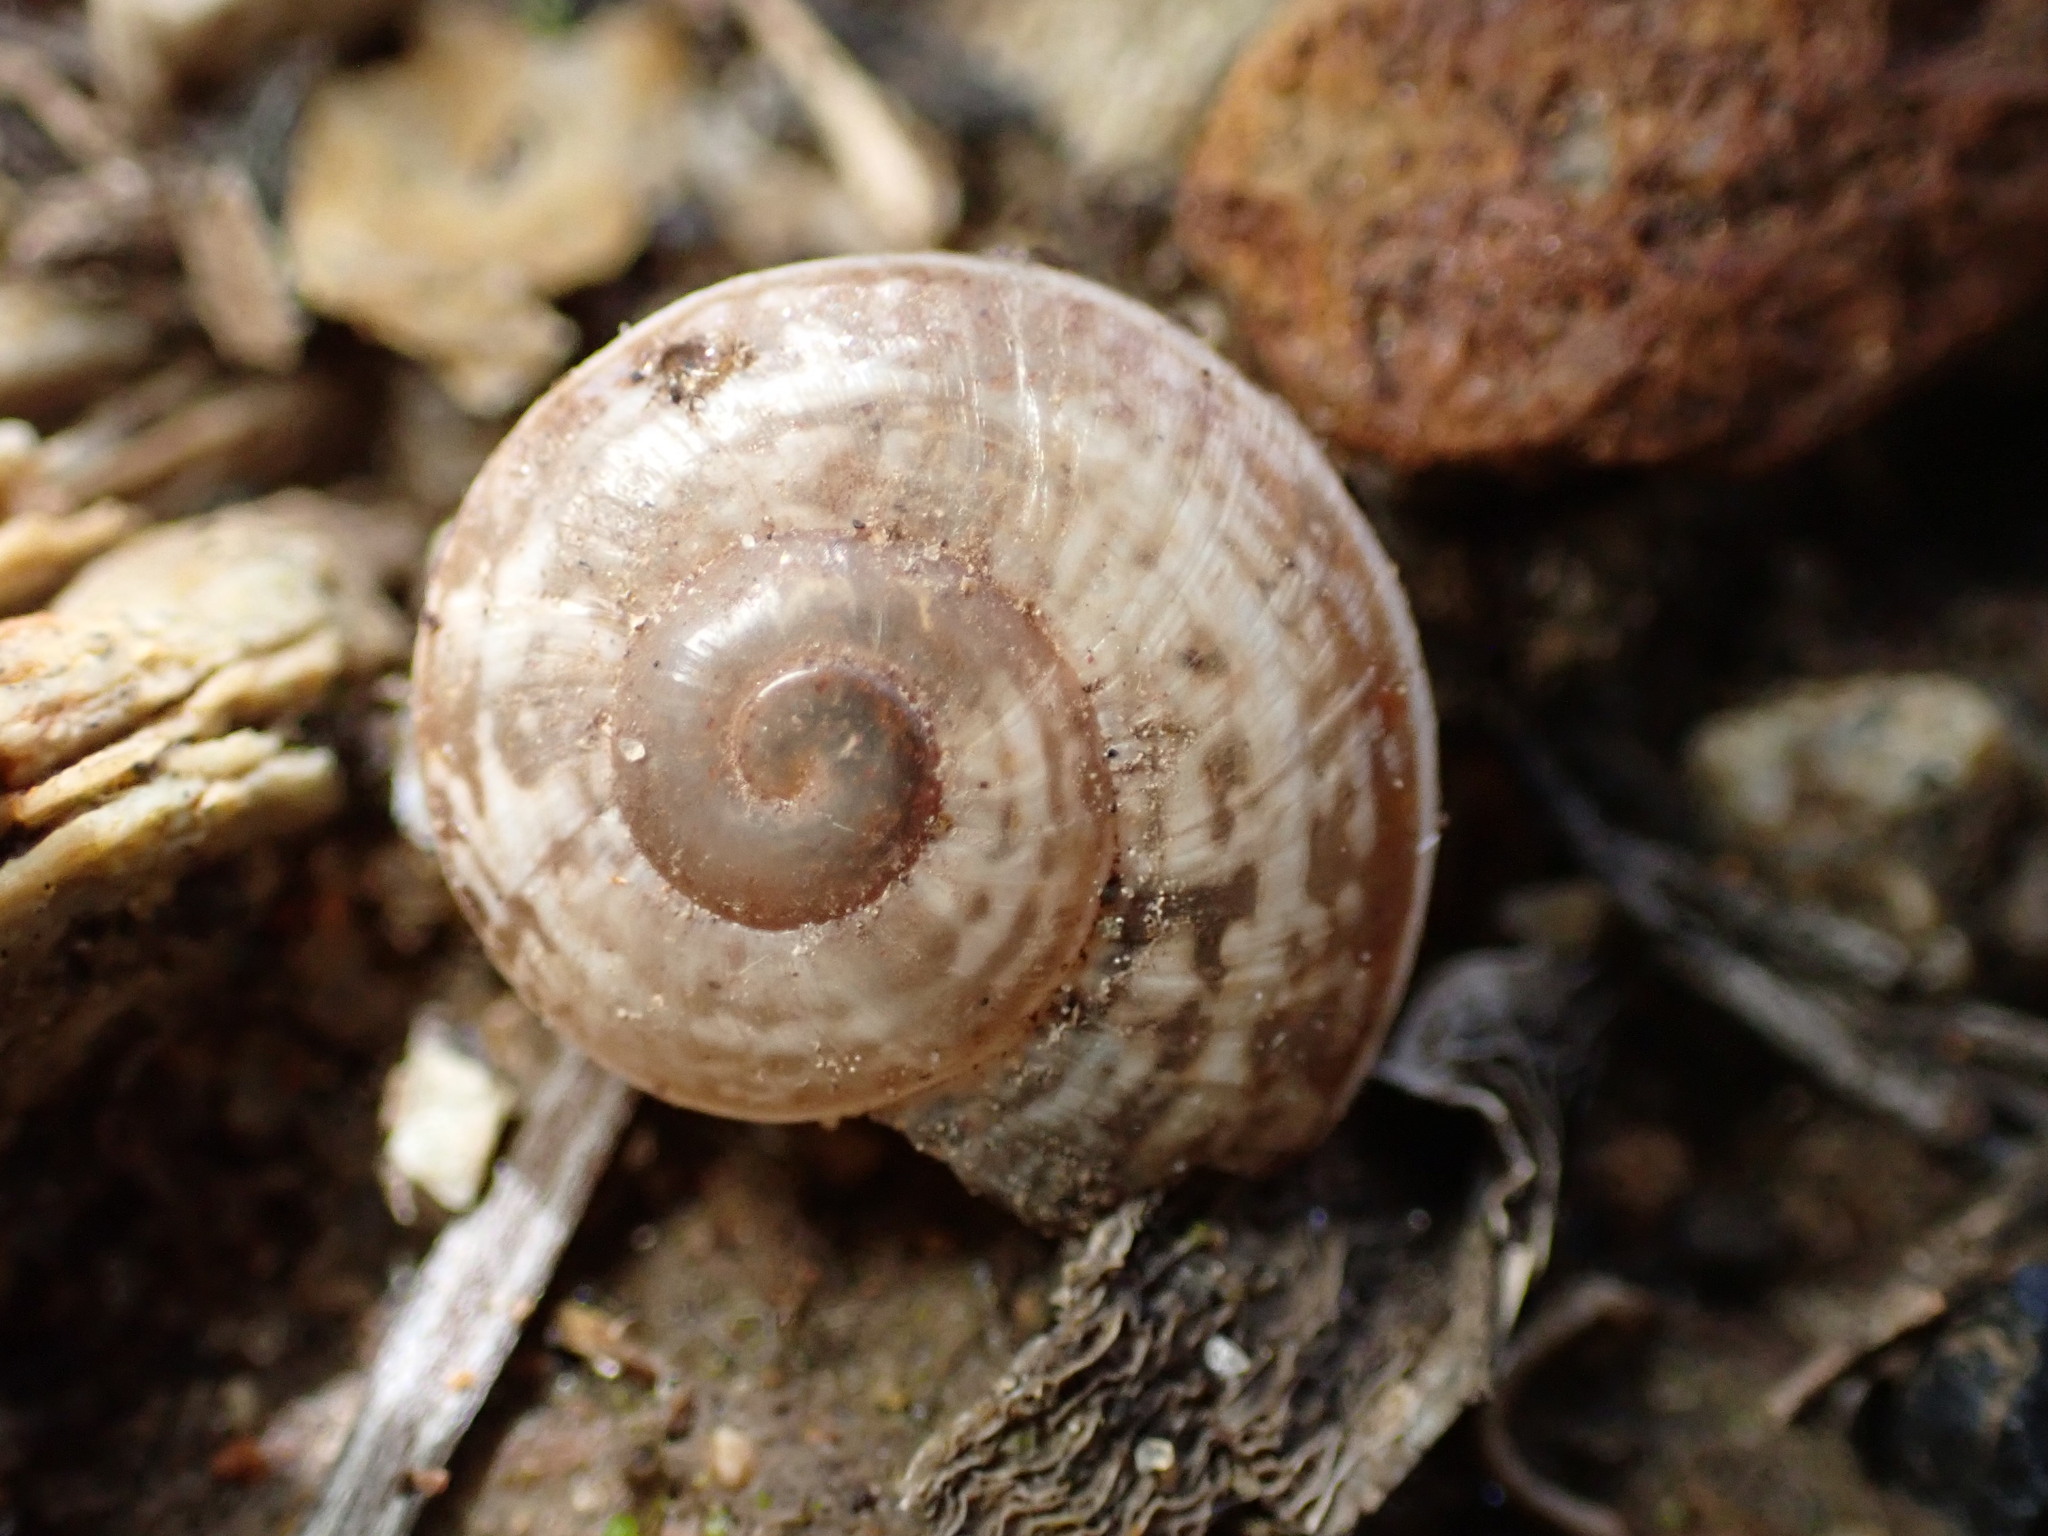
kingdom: Animalia
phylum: Mollusca
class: Gastropoda
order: Stylommatophora
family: Helicidae
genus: Otala
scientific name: Otala lactea
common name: Milk snail
